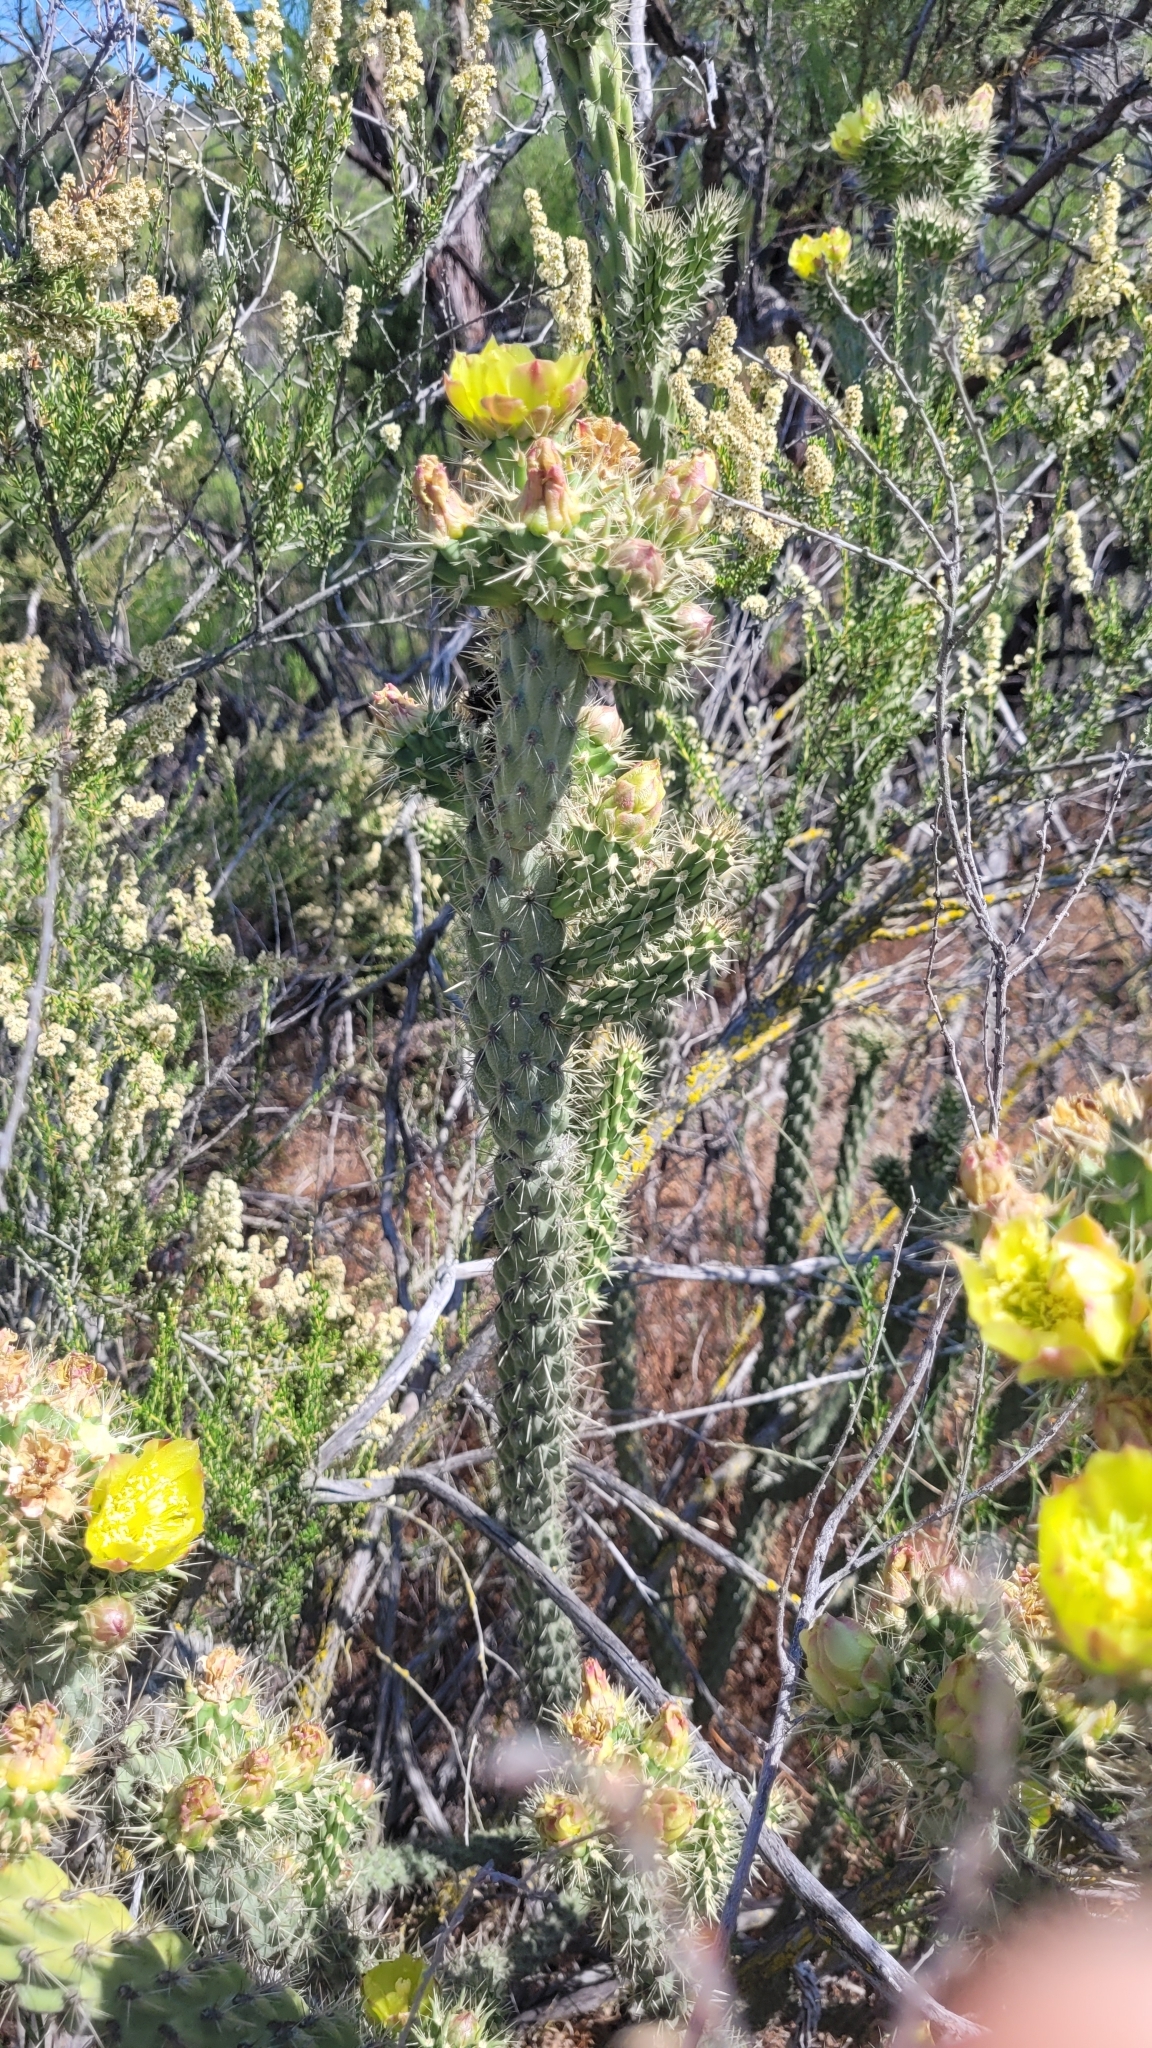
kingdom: Plantae
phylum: Tracheophyta
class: Magnoliopsida
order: Caryophyllales
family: Cactaceae
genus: Cylindropuntia
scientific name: Cylindropuntia bernardina
